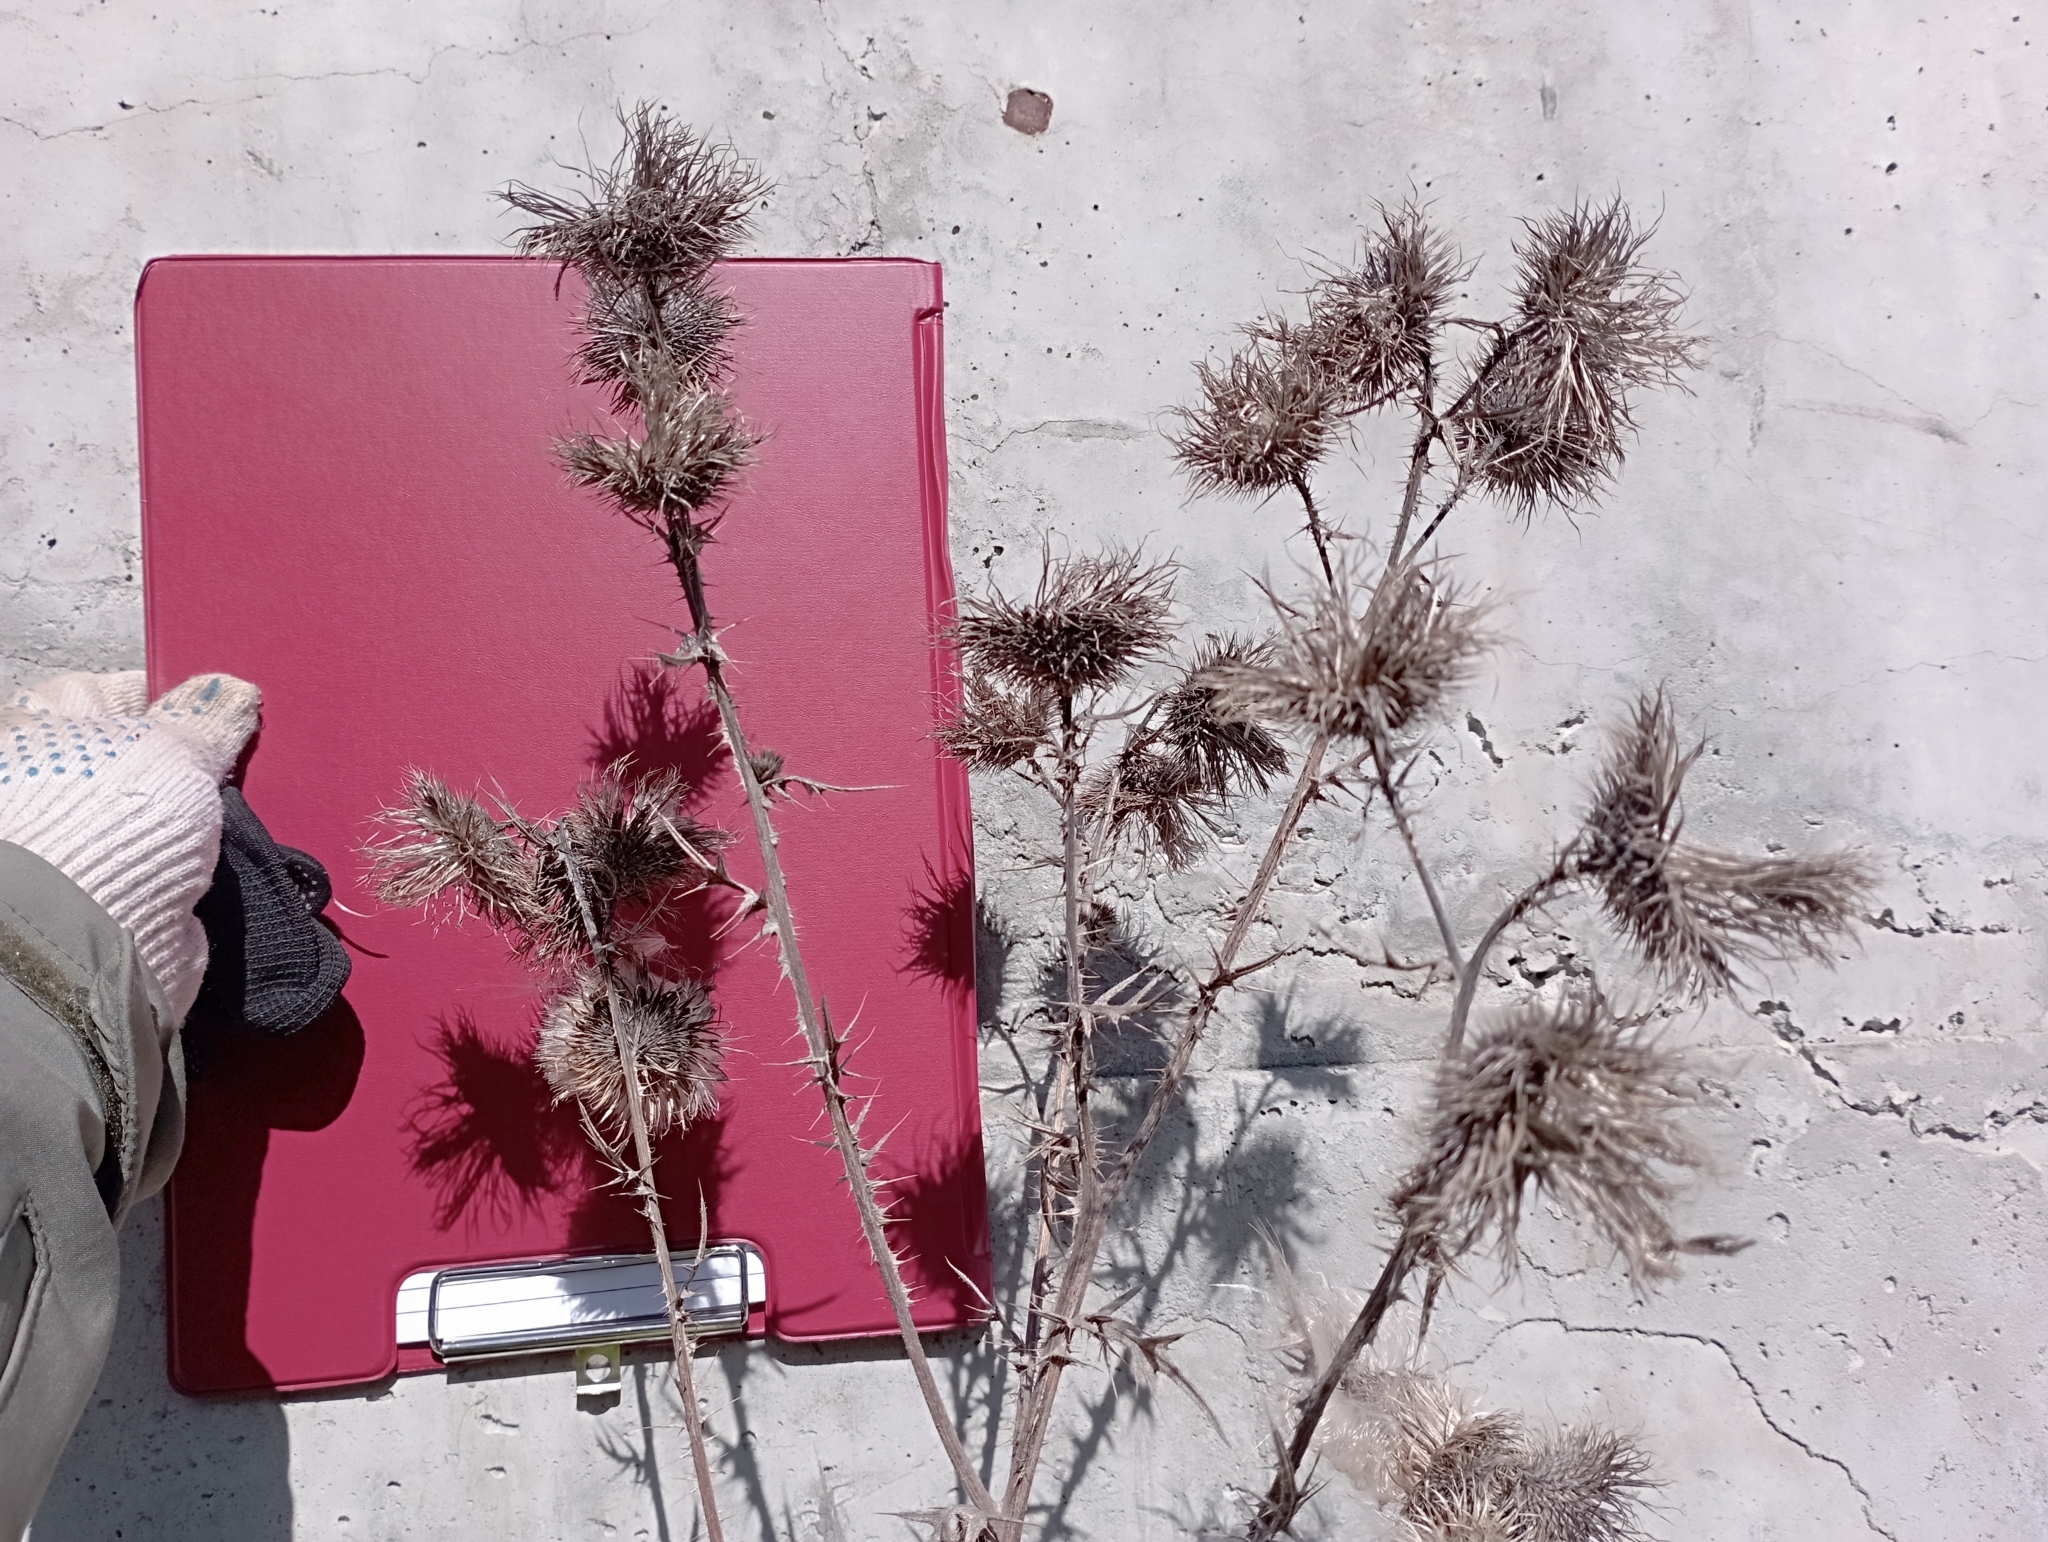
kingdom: Plantae
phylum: Tracheophyta
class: Magnoliopsida
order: Asterales
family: Asteraceae
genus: Cirsium
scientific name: Cirsium vulgare
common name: Bull thistle
